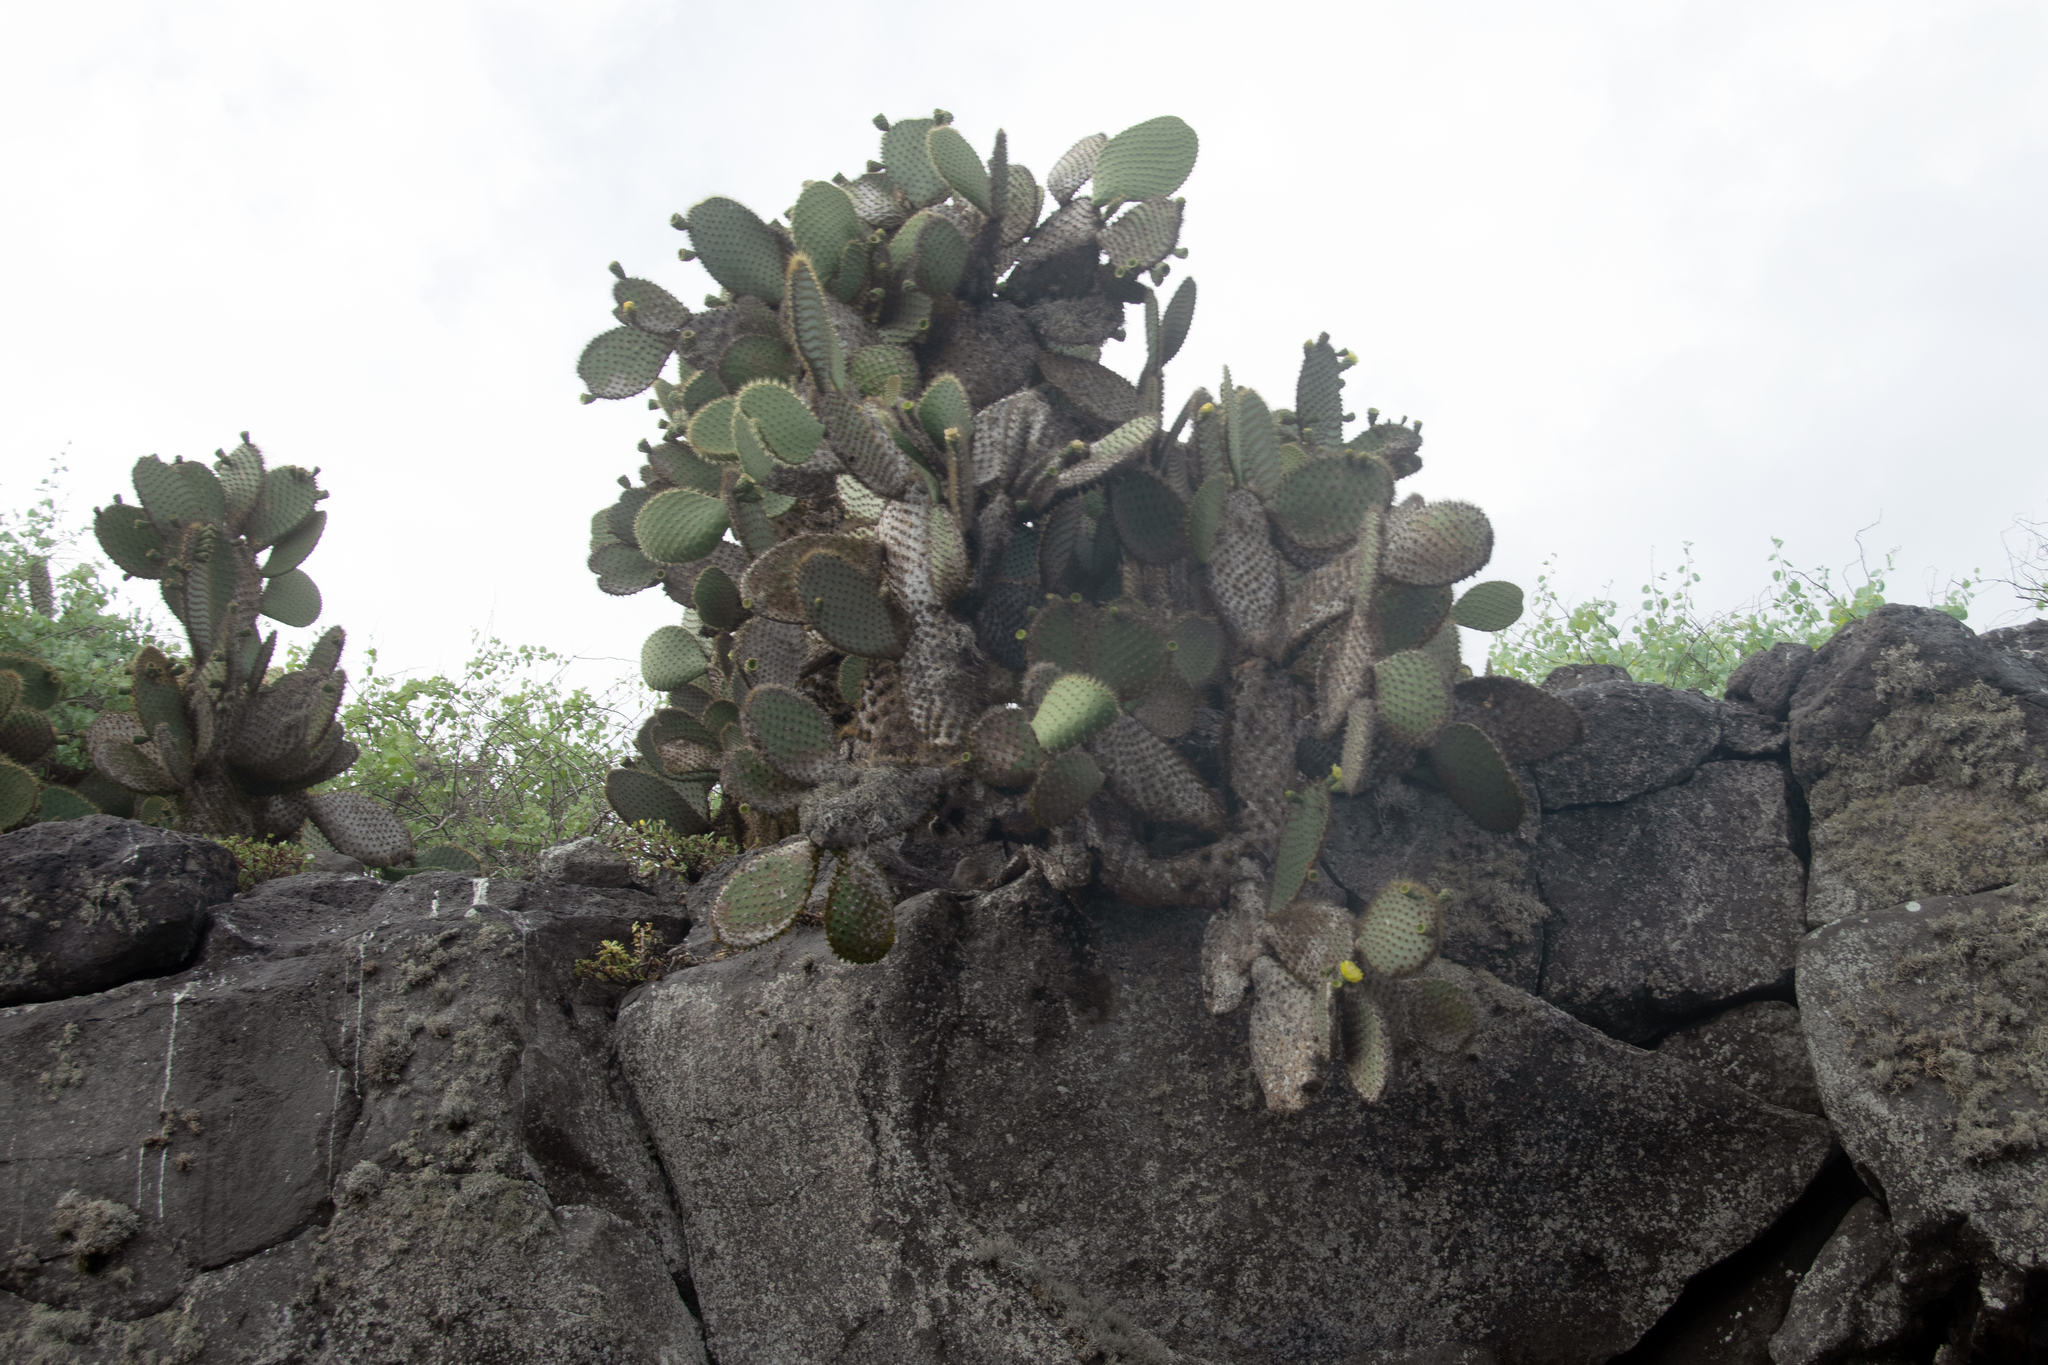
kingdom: Plantae
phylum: Tracheophyta
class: Magnoliopsida
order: Caryophyllales
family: Cactaceae
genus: Opuntia
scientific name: Opuntia galapageia
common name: Galápagos prickly pear
